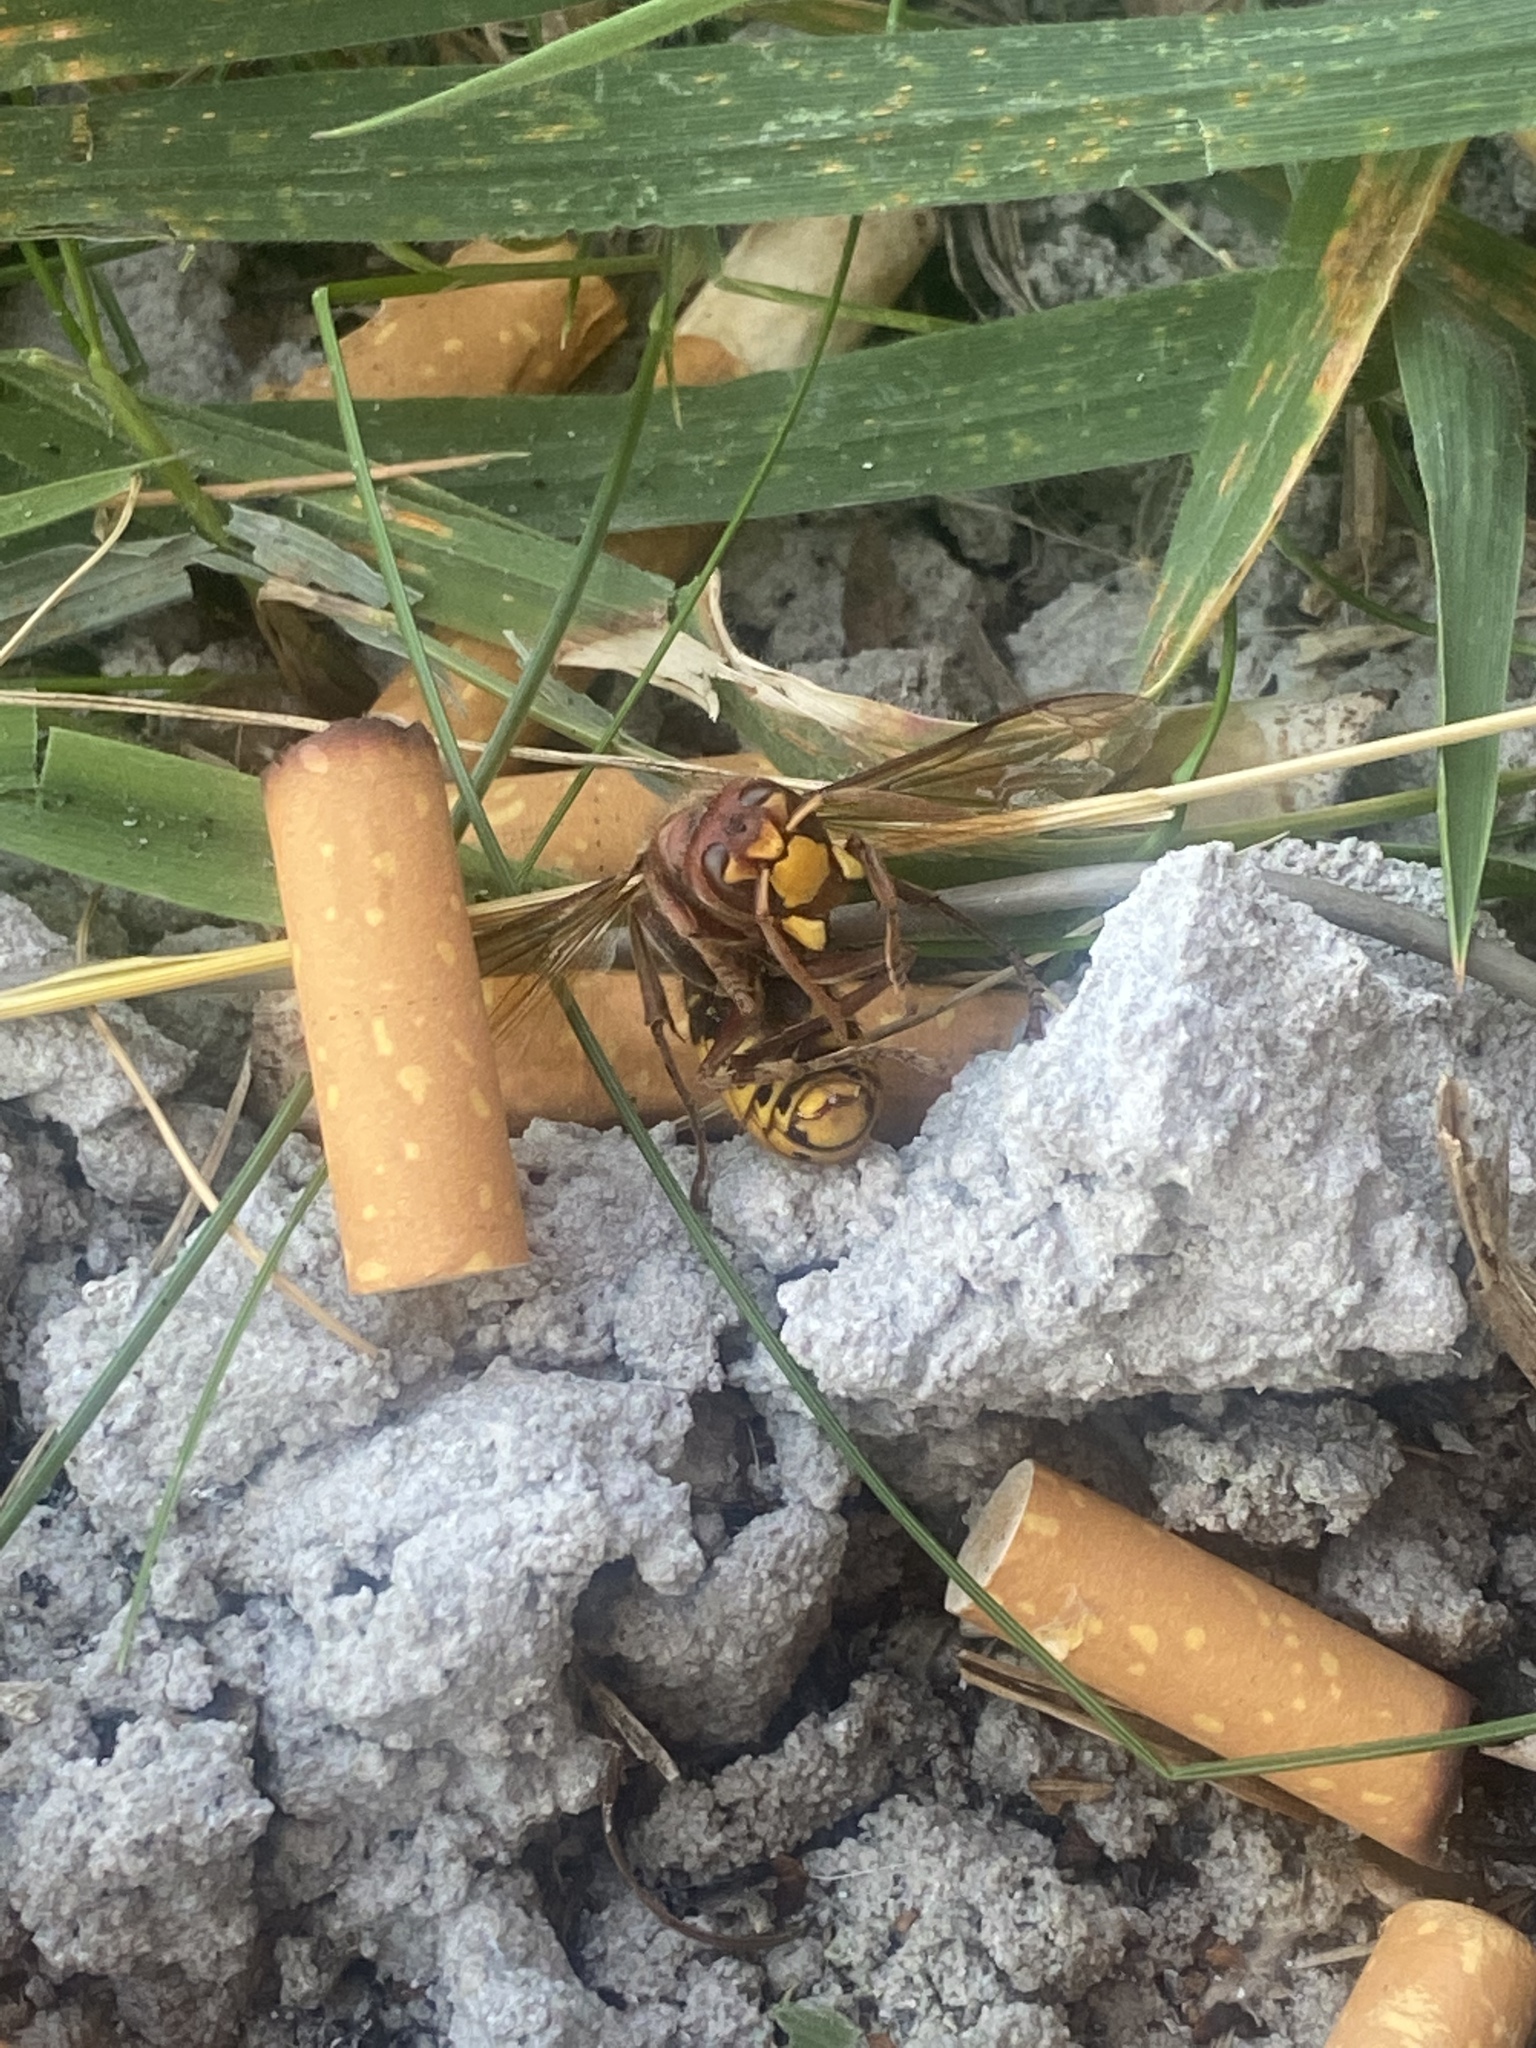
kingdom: Animalia
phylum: Arthropoda
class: Insecta
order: Hymenoptera
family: Vespidae
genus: Vespa
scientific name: Vespa crabro
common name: Hornet
